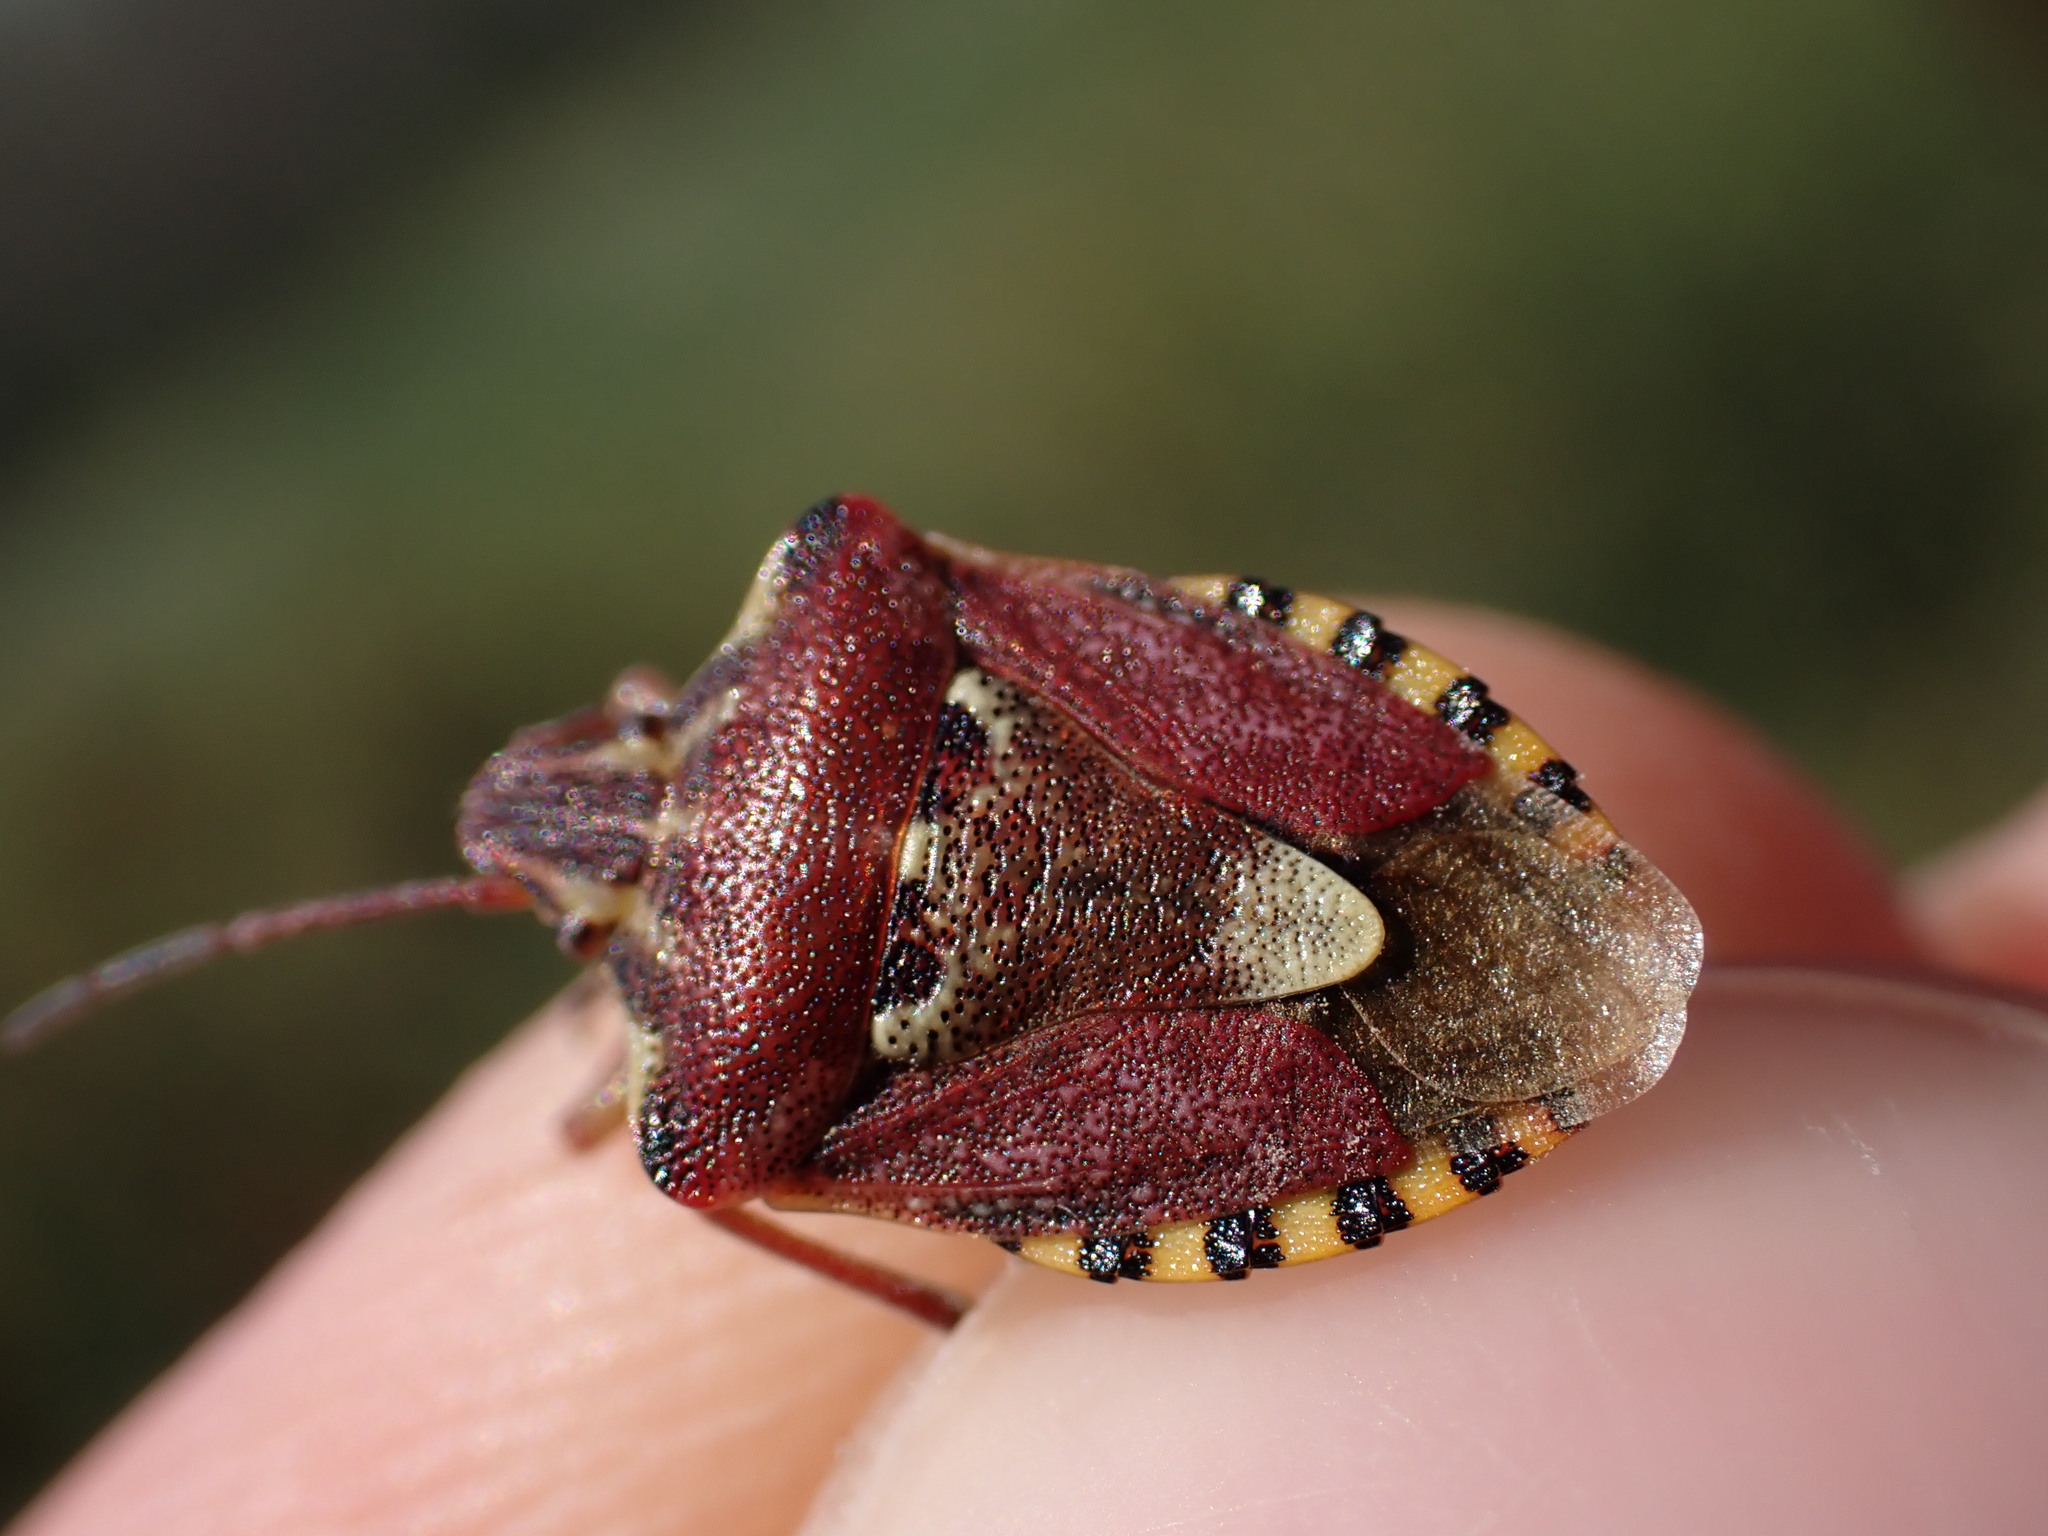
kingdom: Animalia
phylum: Arthropoda
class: Insecta
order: Hemiptera
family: Miridae
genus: Orthops
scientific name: Orthops kalmii
